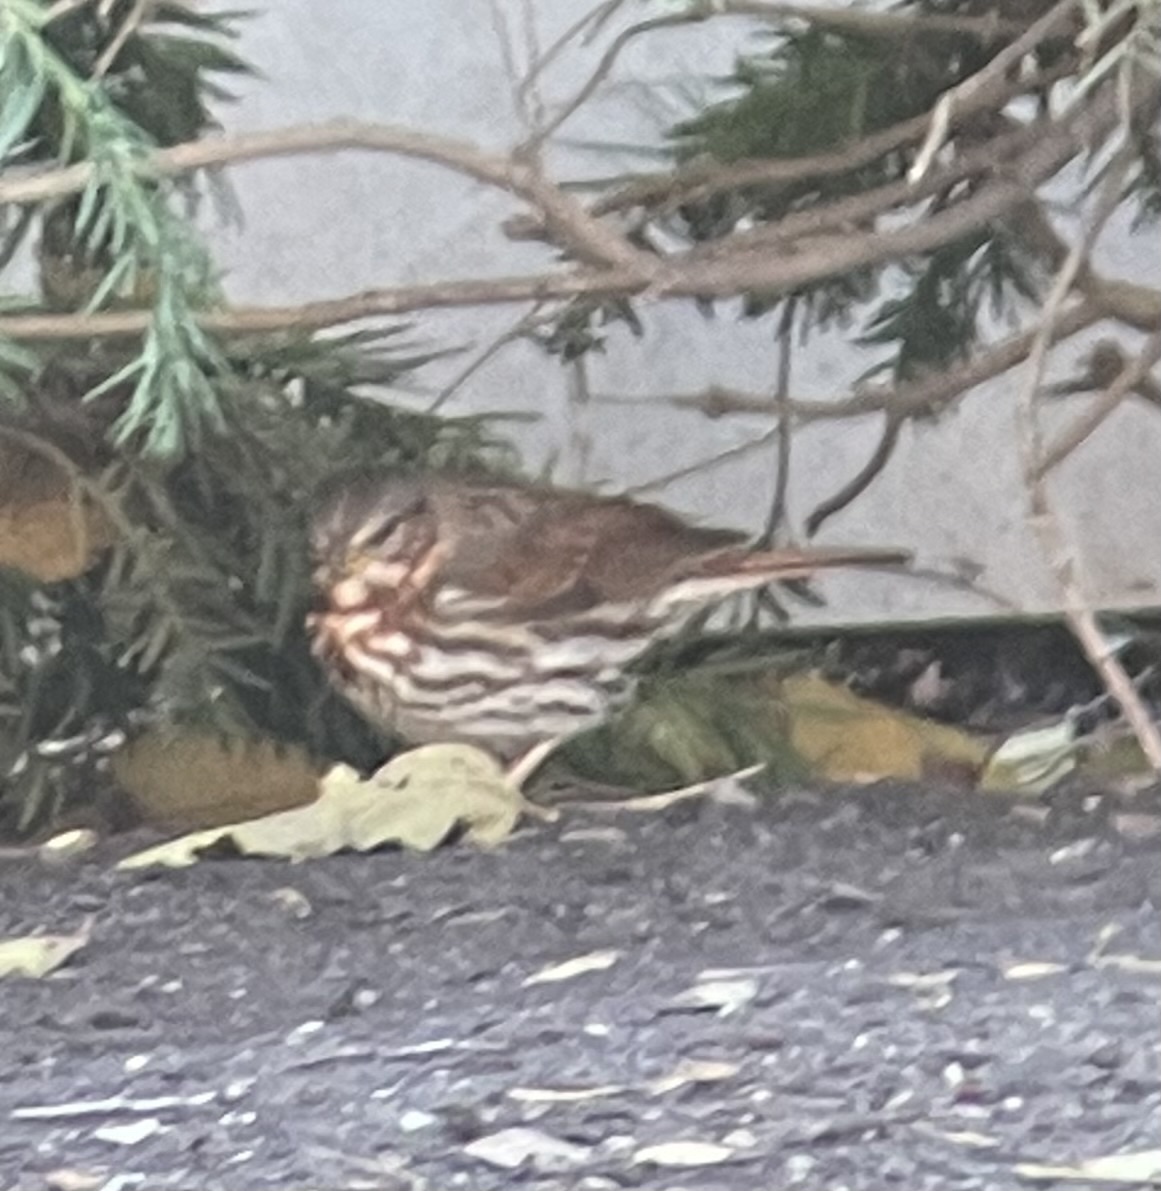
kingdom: Animalia
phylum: Chordata
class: Aves
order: Passeriformes
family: Passerellidae
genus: Passerella
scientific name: Passerella iliaca
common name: Fox sparrow
